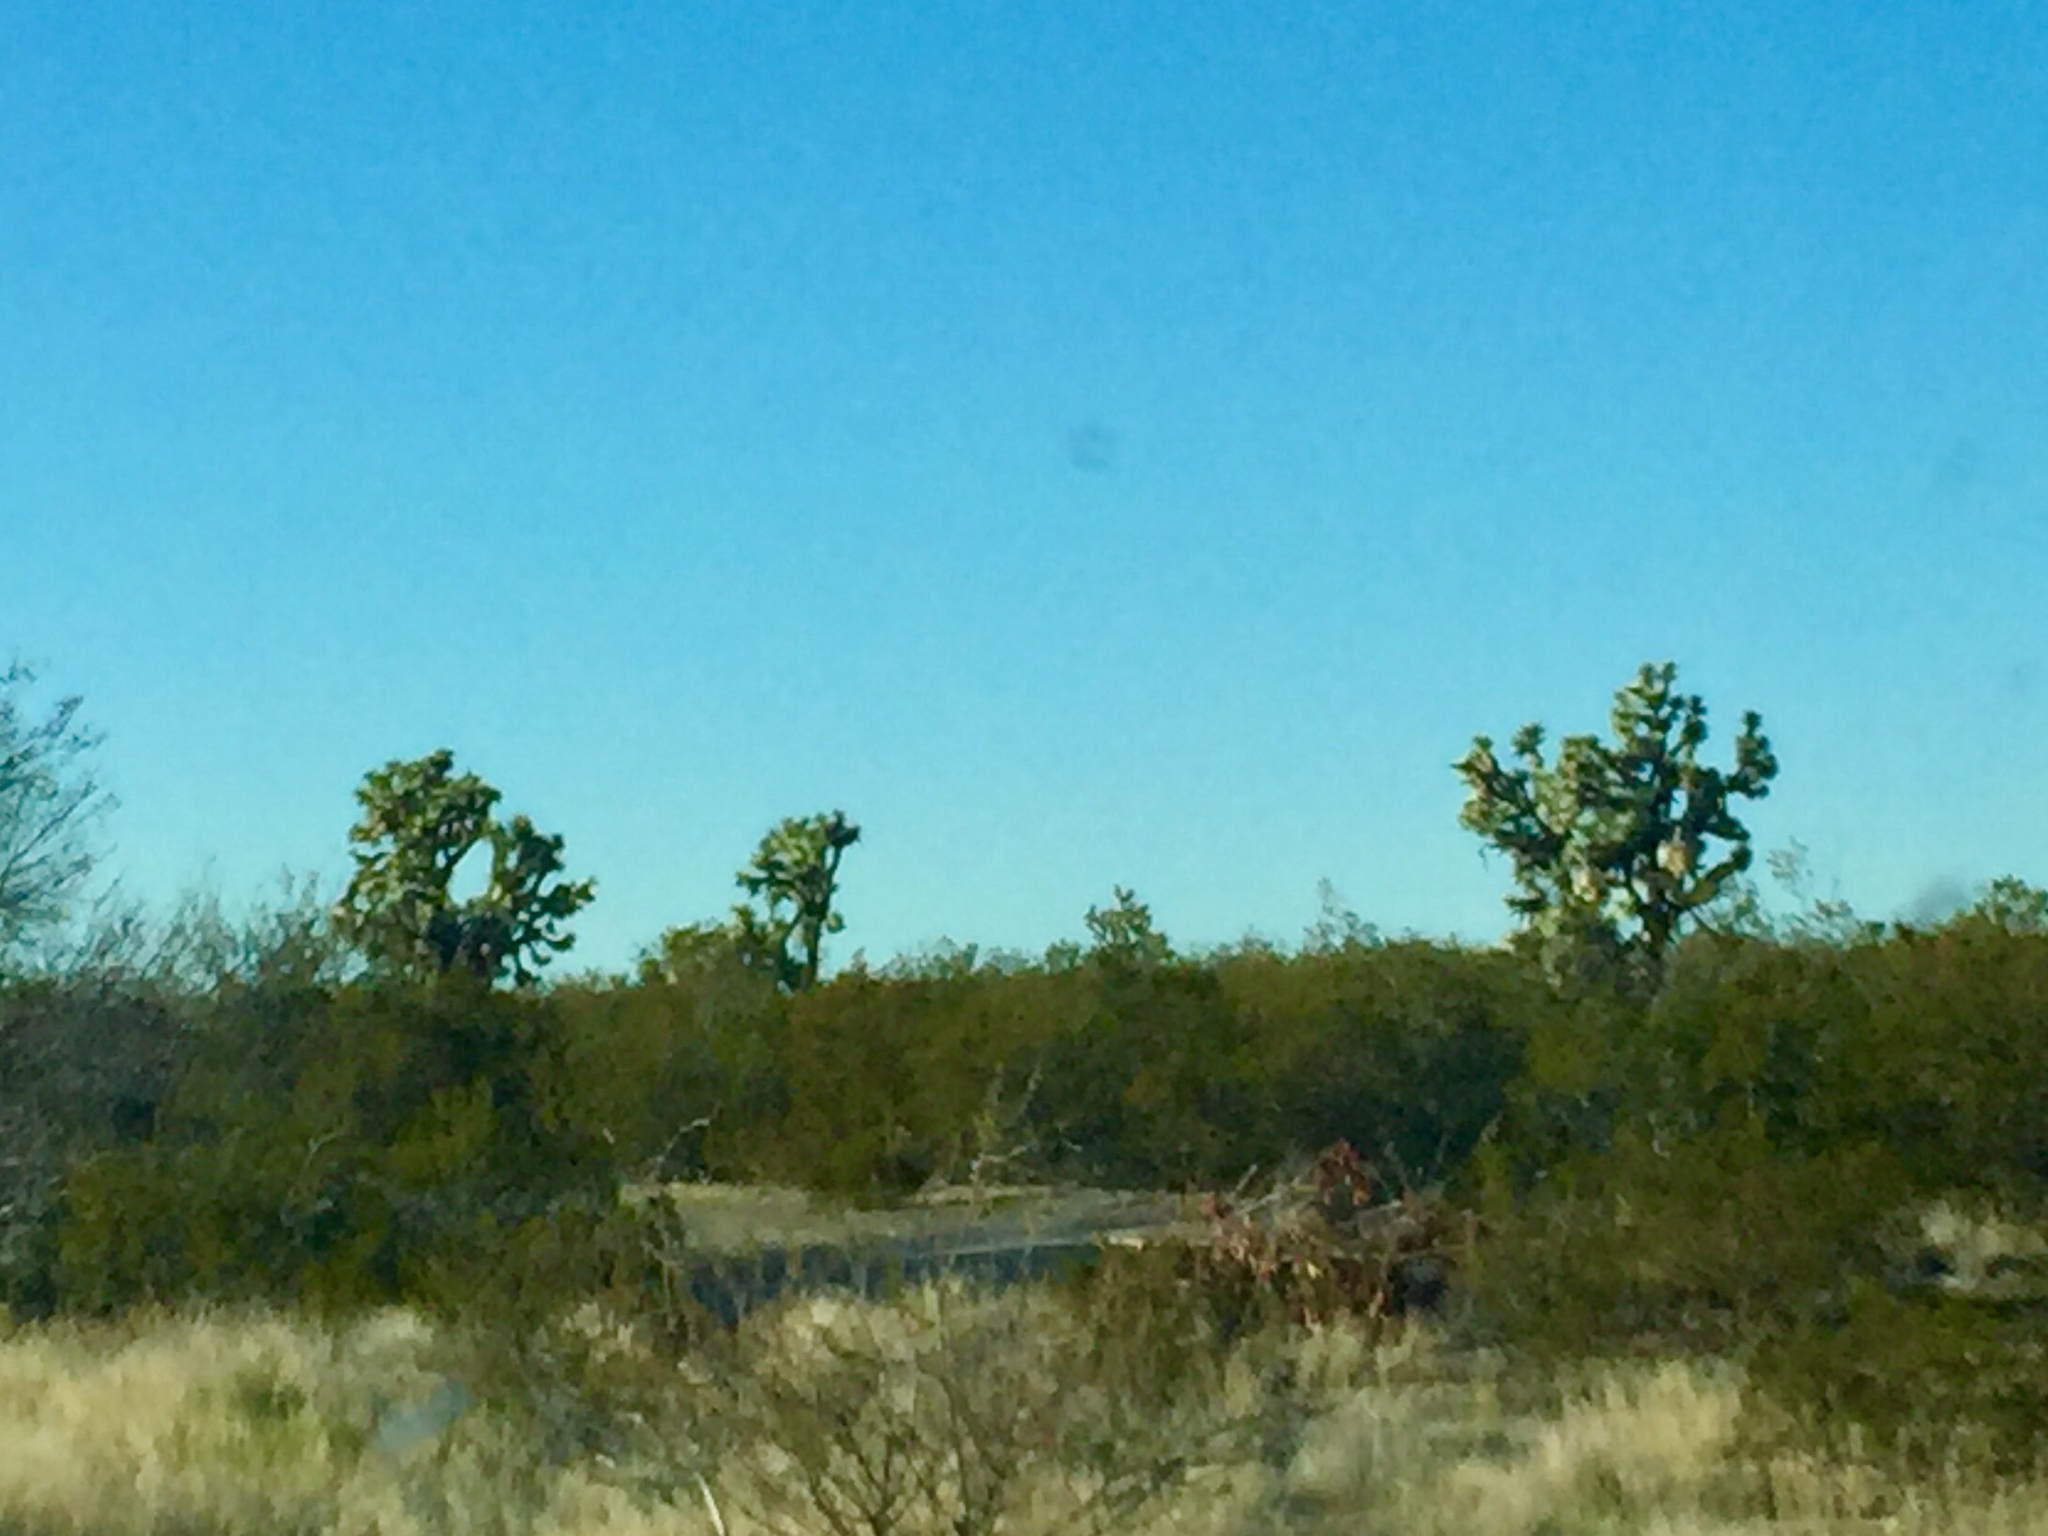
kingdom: Plantae
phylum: Tracheophyta
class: Liliopsida
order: Asparagales
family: Asparagaceae
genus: Yucca
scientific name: Yucca brevifolia
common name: Joshua tree
